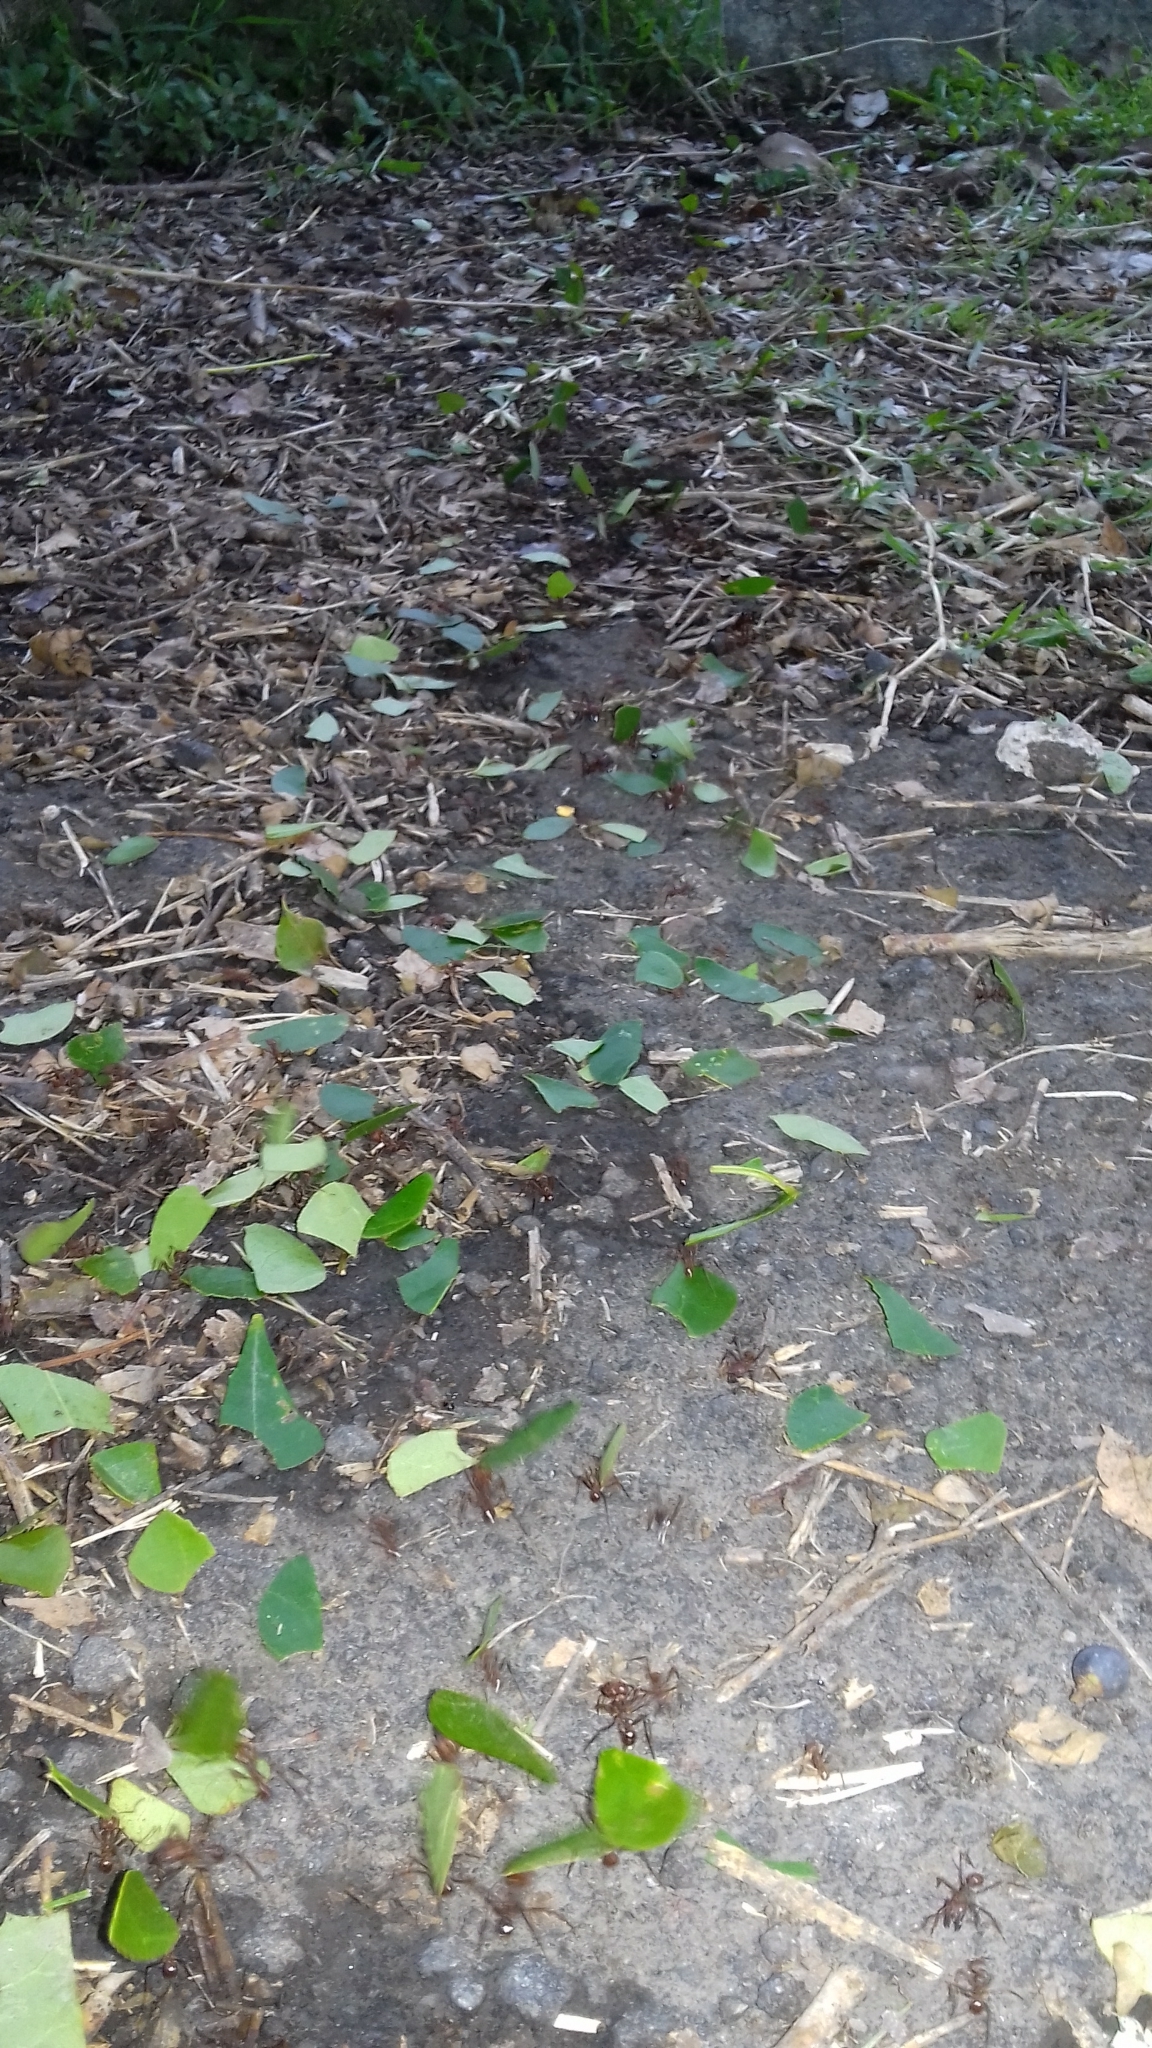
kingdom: Animalia
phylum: Arthropoda
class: Insecta
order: Hymenoptera
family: Formicidae
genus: Atta
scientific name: Atta mexicana
